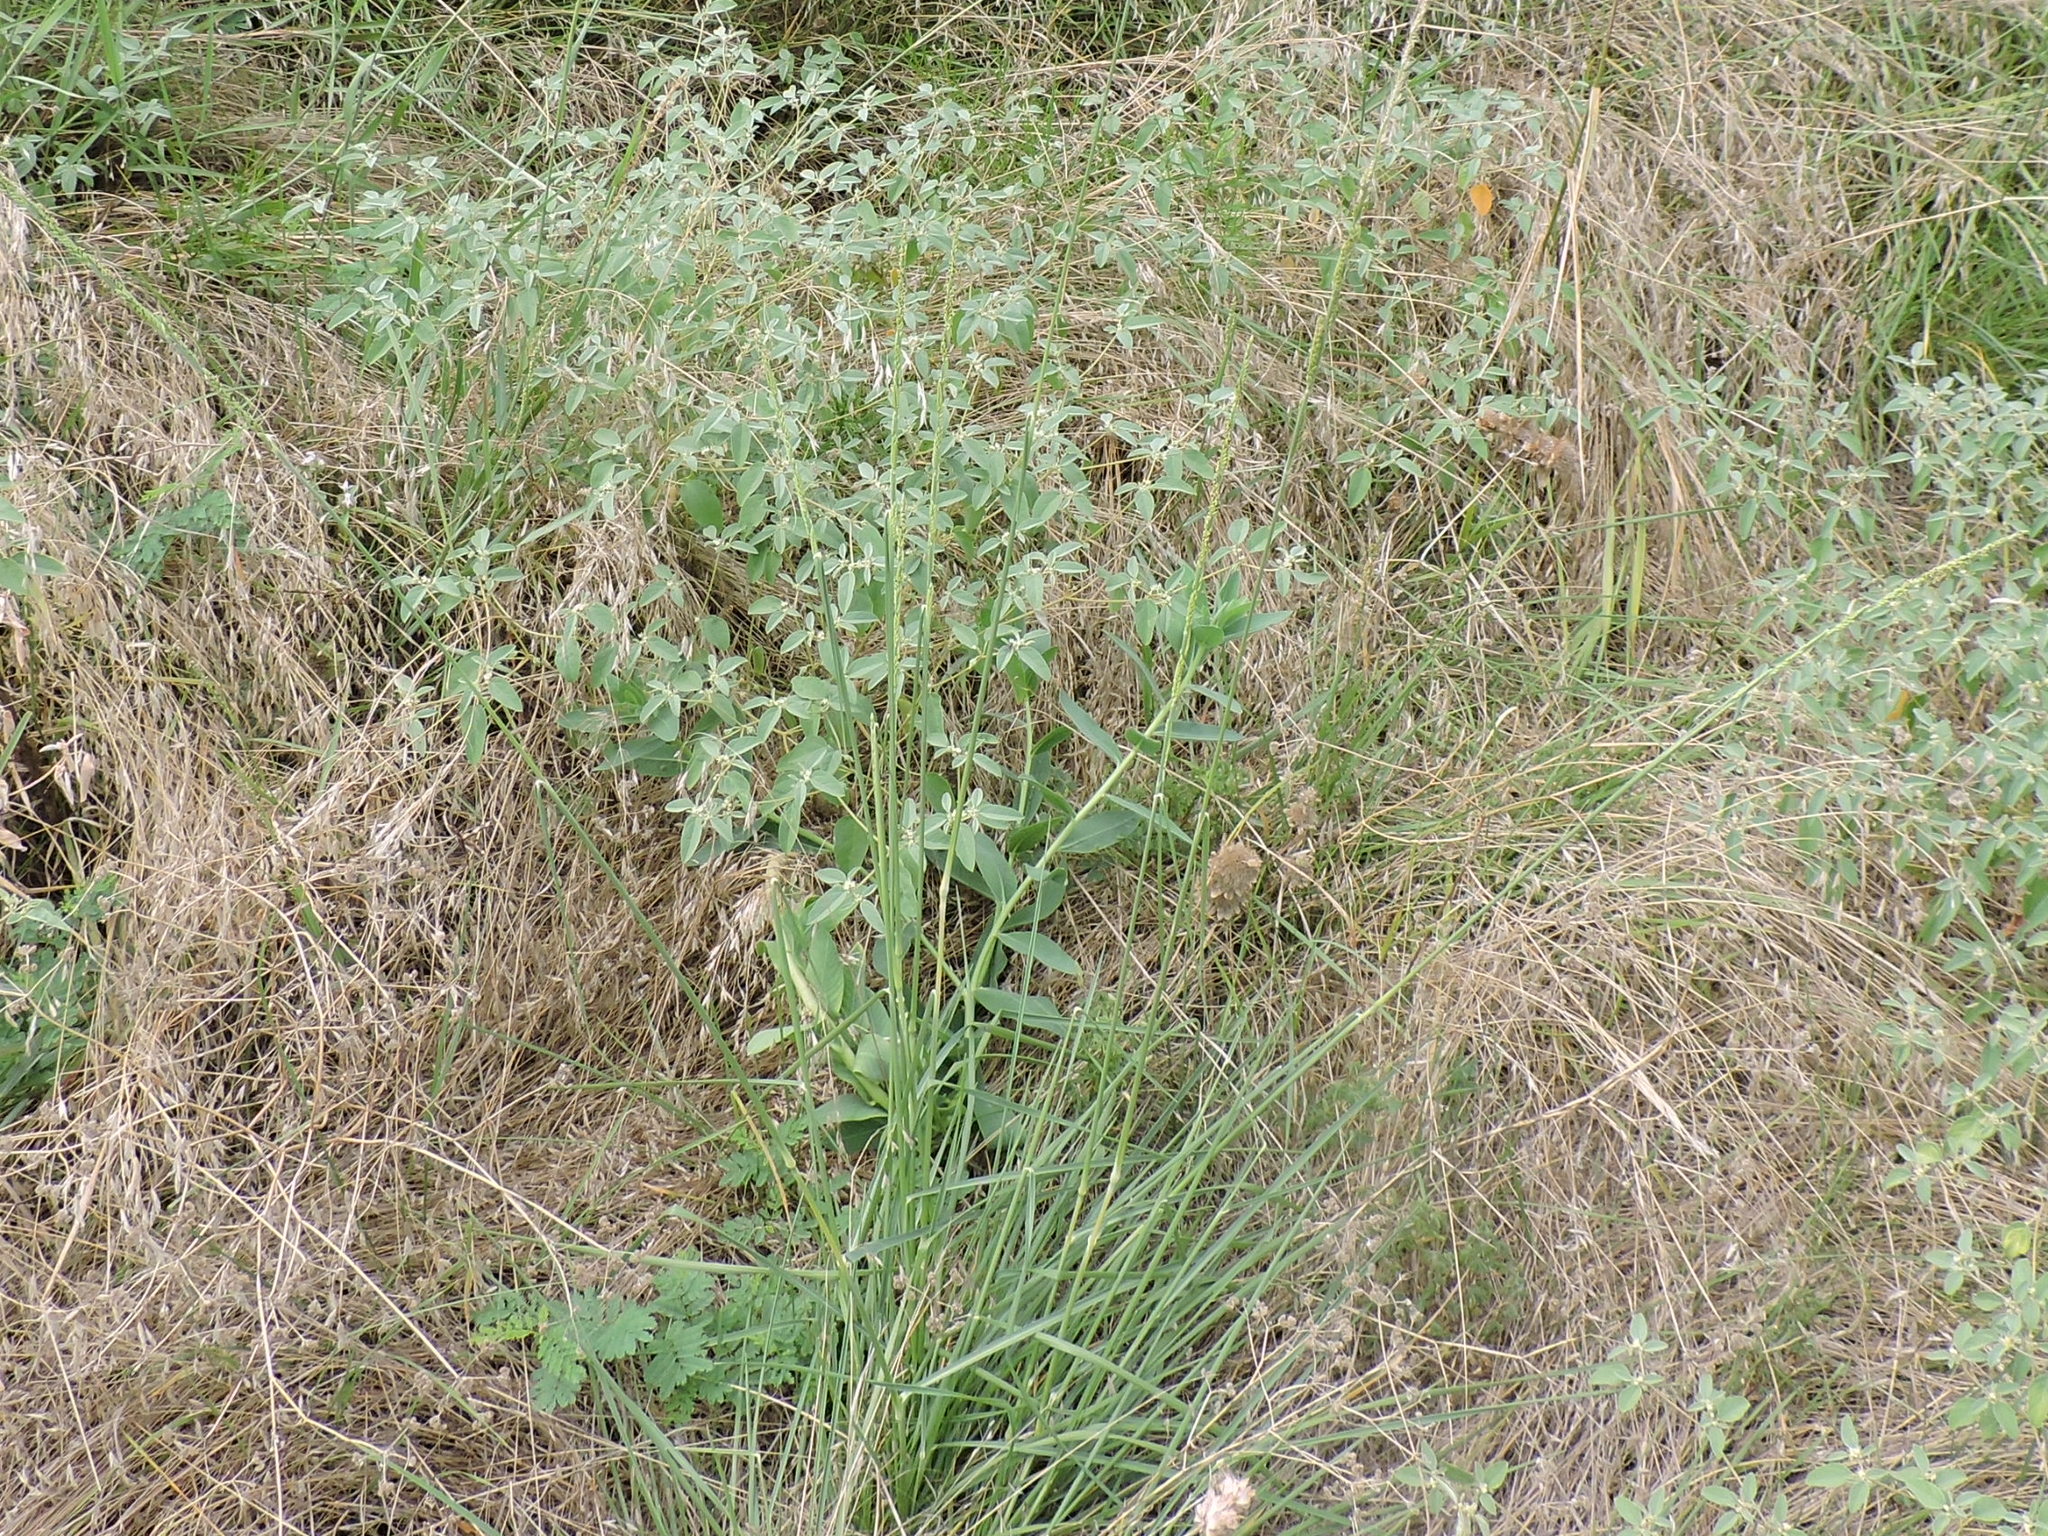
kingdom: Plantae
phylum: Tracheophyta
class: Liliopsida
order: Poales
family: Poaceae
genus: Eriochloa
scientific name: Eriochloa sericea
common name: Texas cup grass
